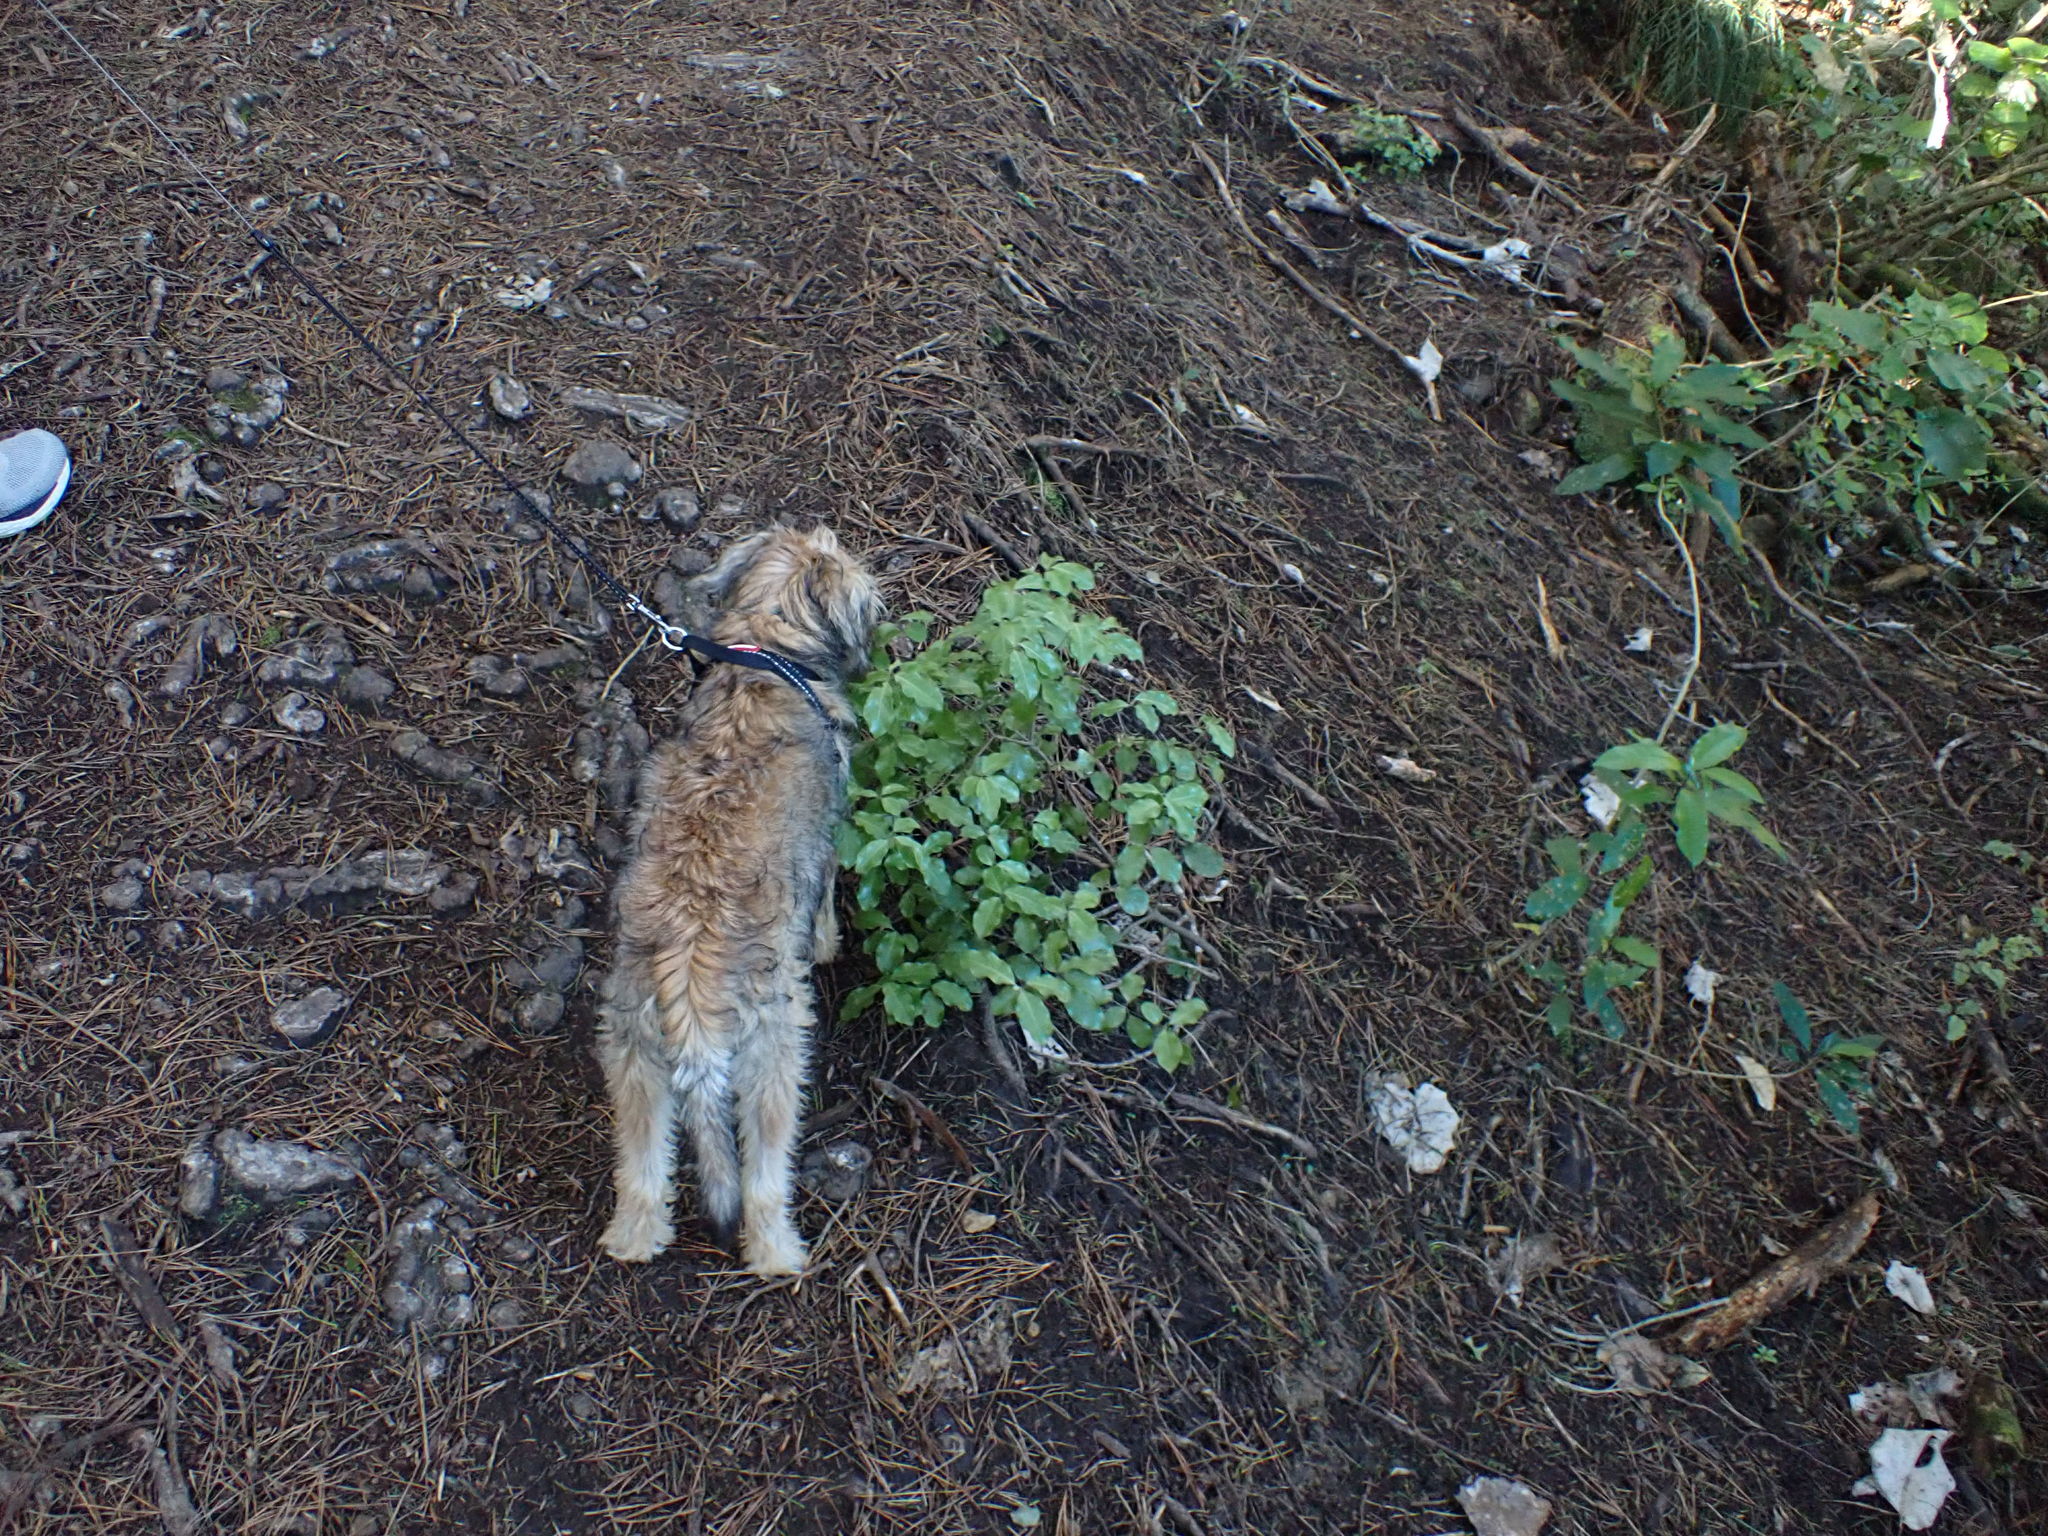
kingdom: Plantae
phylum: Tracheophyta
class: Magnoliopsida
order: Apiales
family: Pittosporaceae
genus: Pittosporum
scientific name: Pittosporum tenuifolium
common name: Kohuhu
